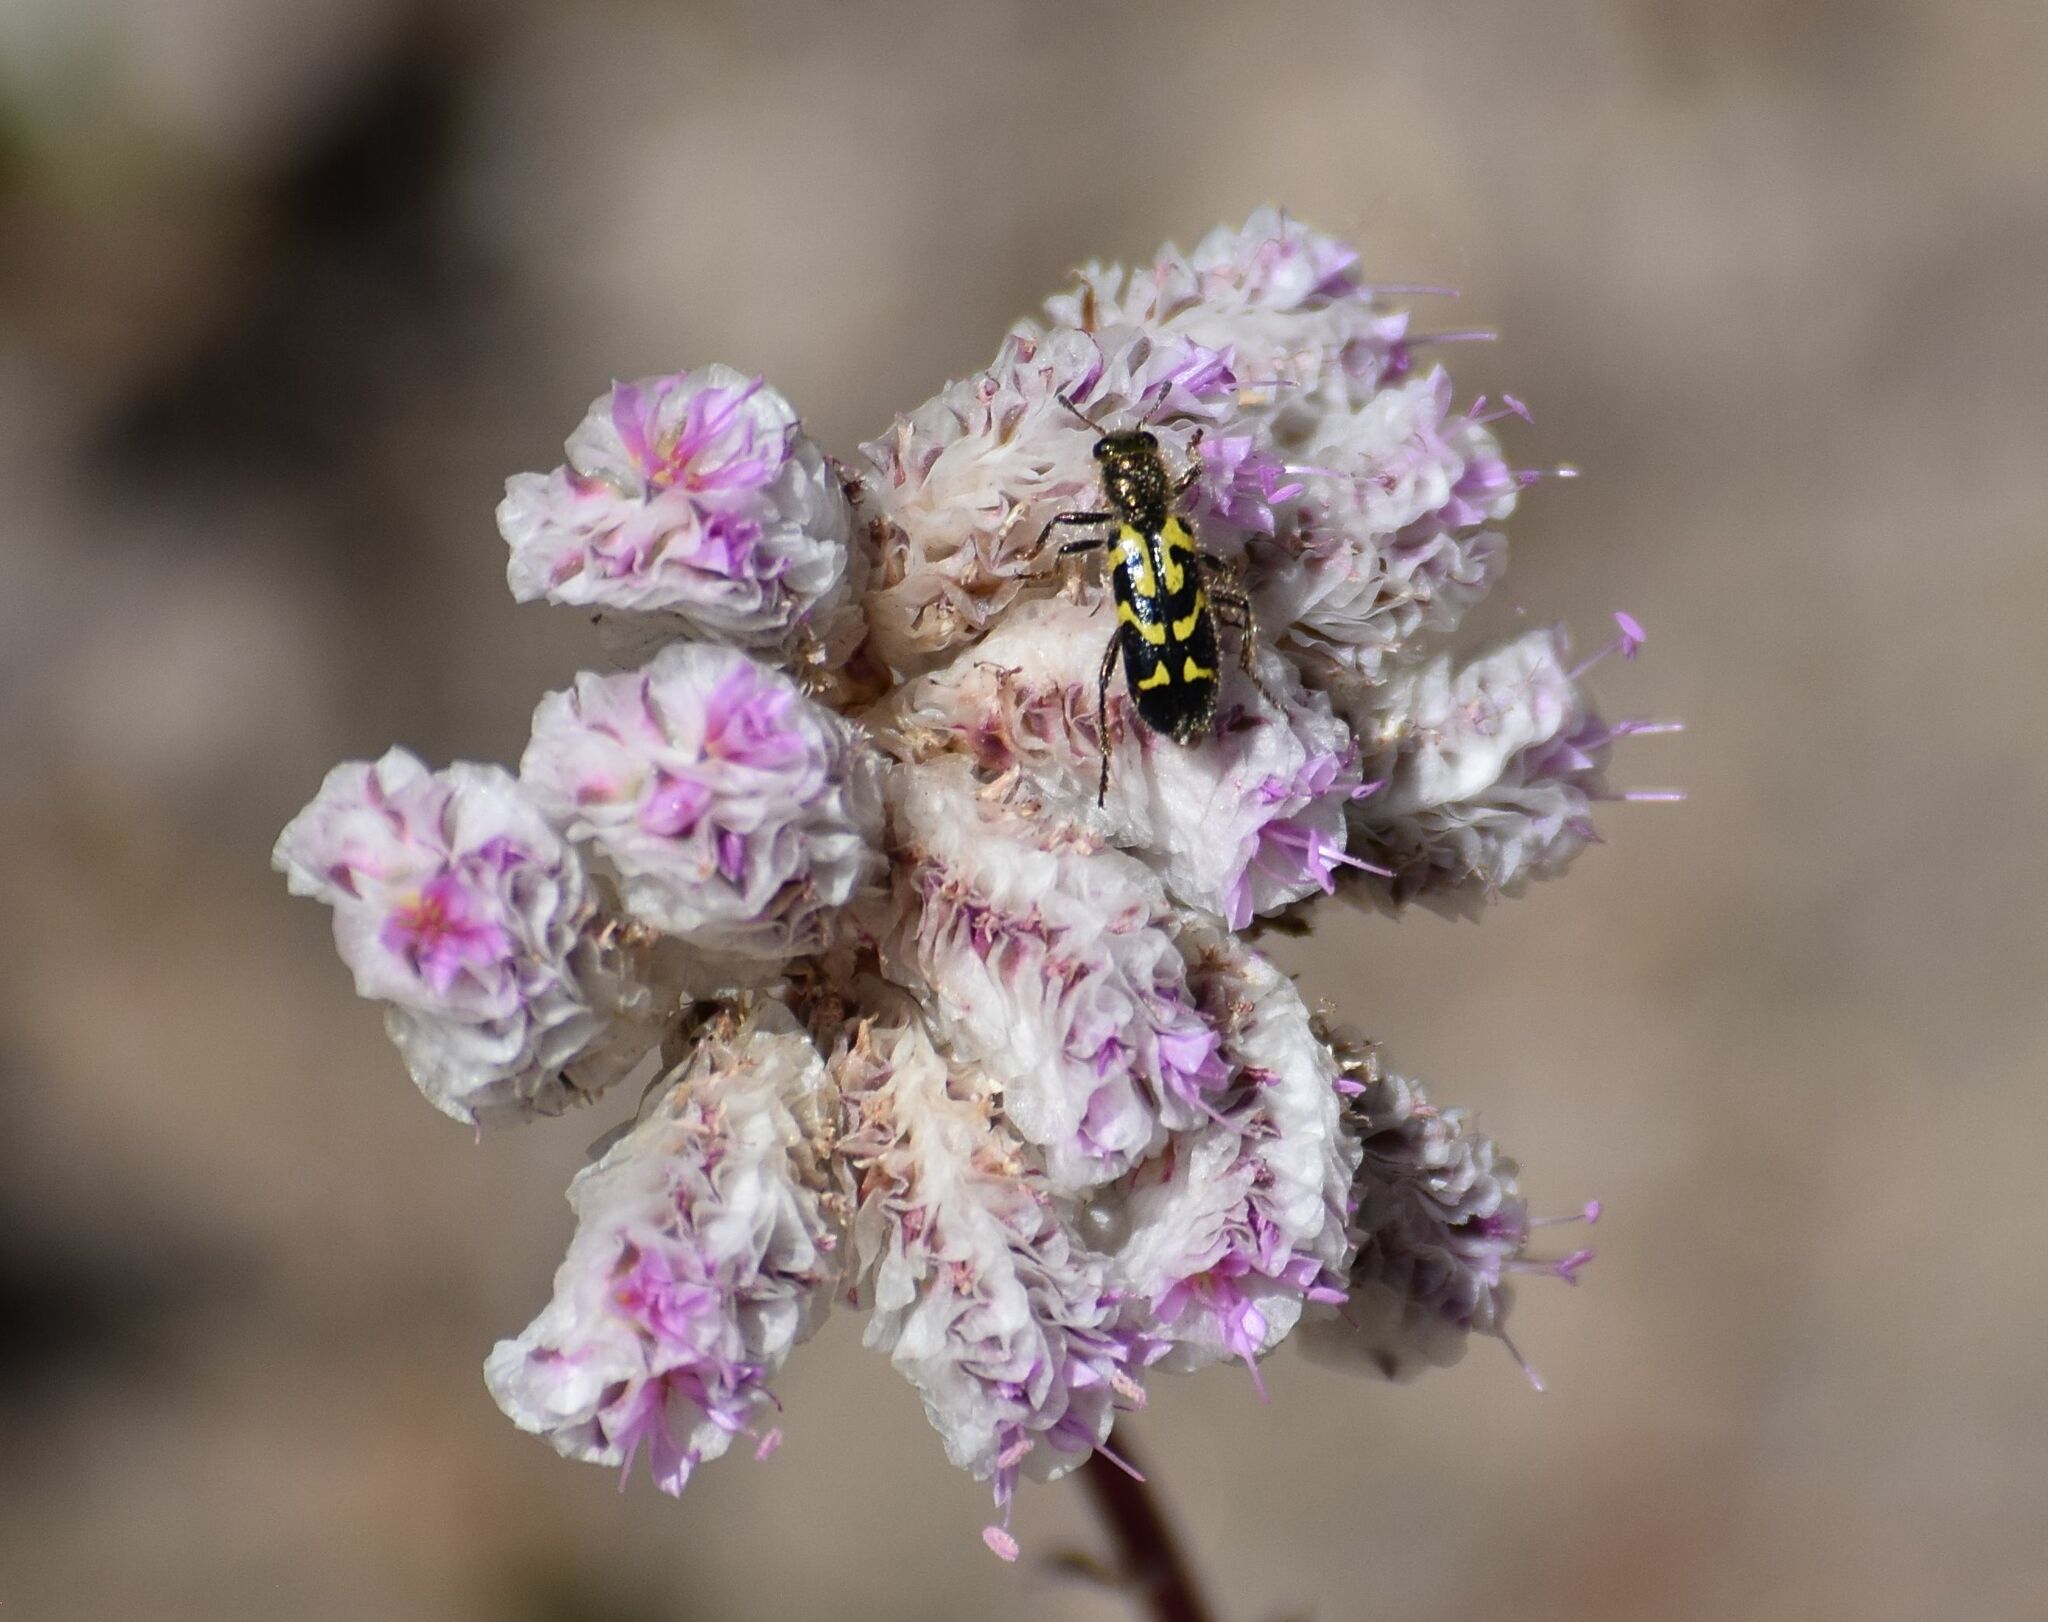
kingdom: Animalia
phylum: Arthropoda
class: Insecta
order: Coleoptera
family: Cleridae
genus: Trichodes
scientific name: Trichodes ornatus
